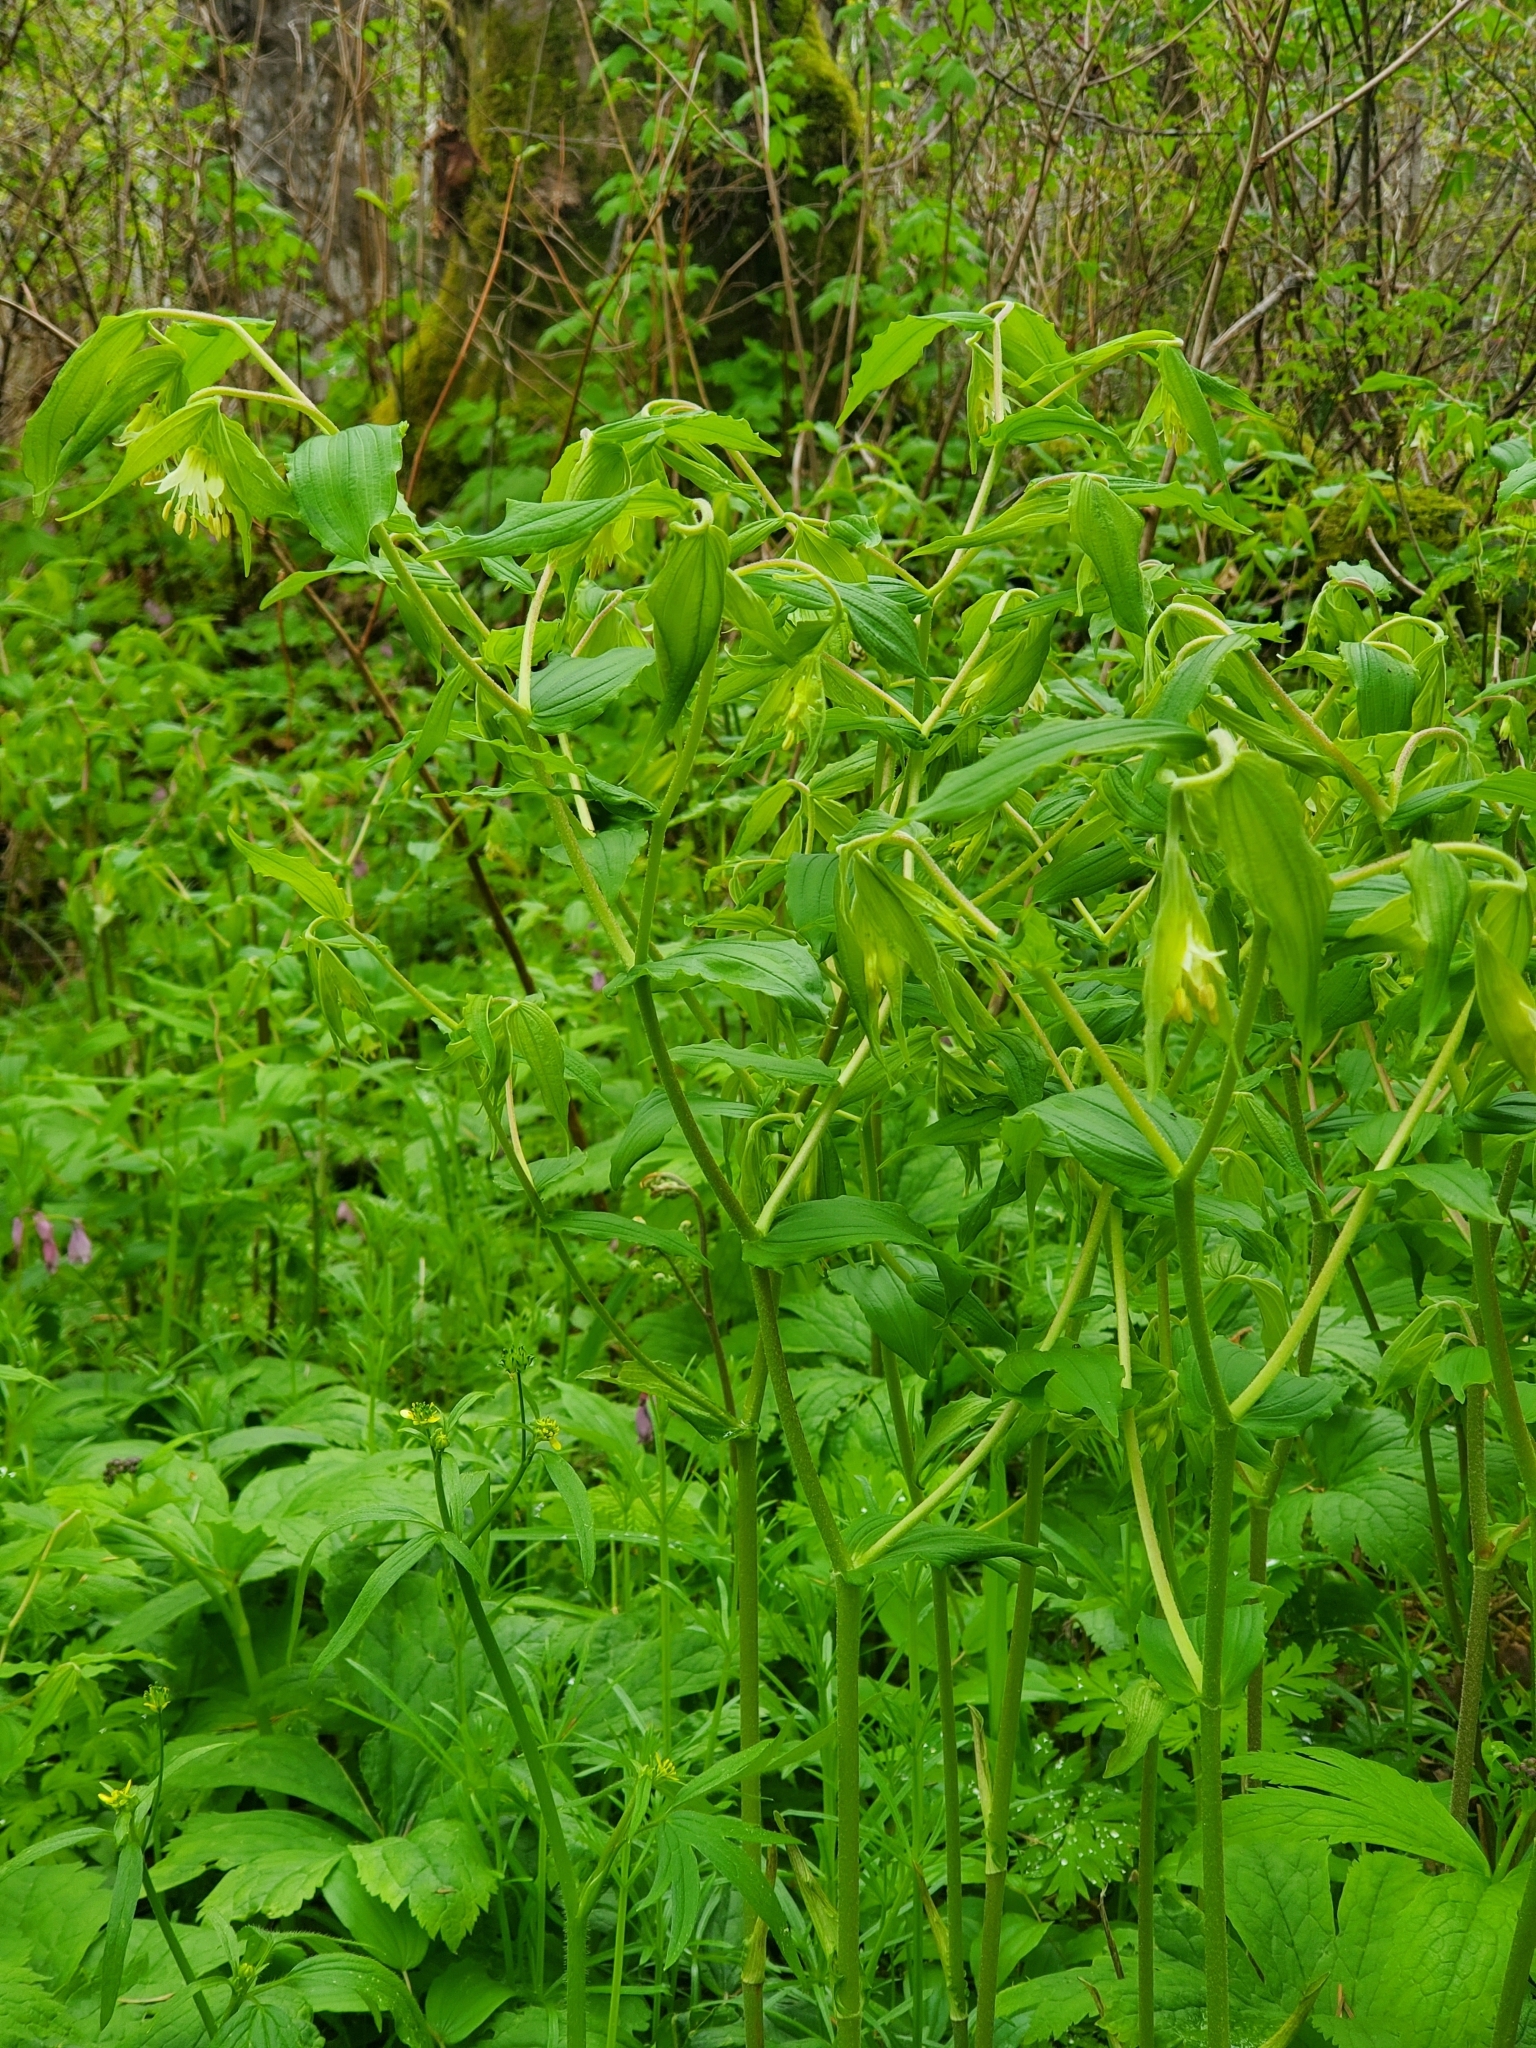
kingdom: Plantae
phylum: Tracheophyta
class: Liliopsida
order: Liliales
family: Liliaceae
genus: Prosartes
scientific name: Prosartes hookeri
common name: Fairy-bells
